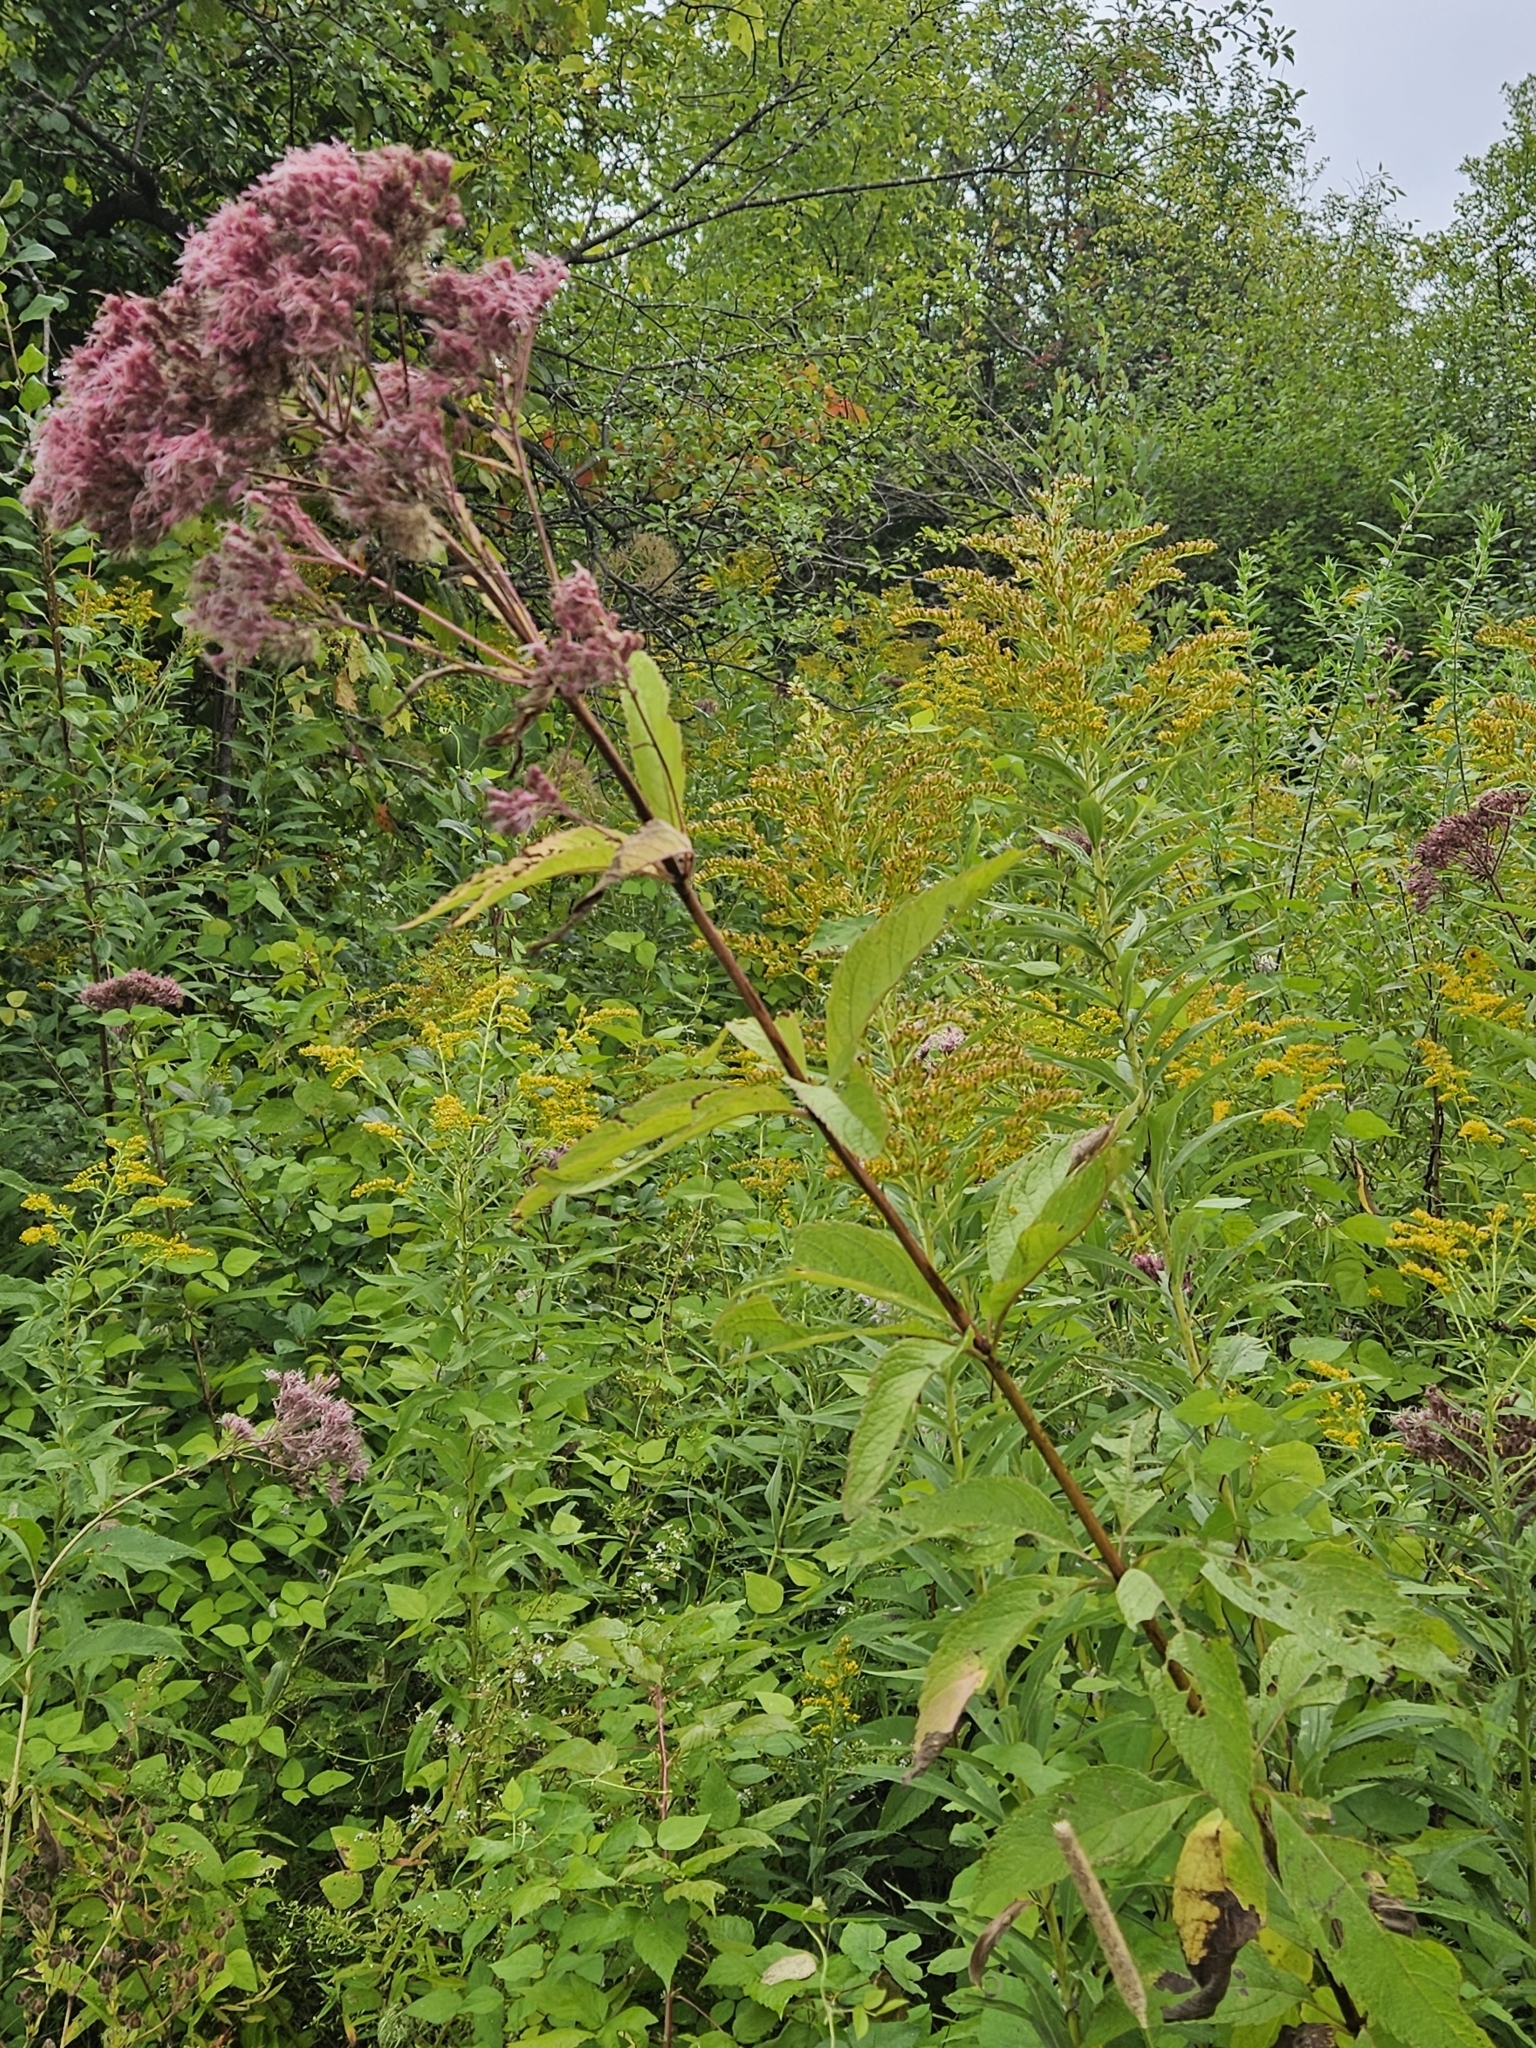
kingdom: Plantae
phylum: Tracheophyta
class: Magnoliopsida
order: Asterales
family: Asteraceae
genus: Eutrochium
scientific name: Eutrochium maculatum
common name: Spotted joe pye weed
